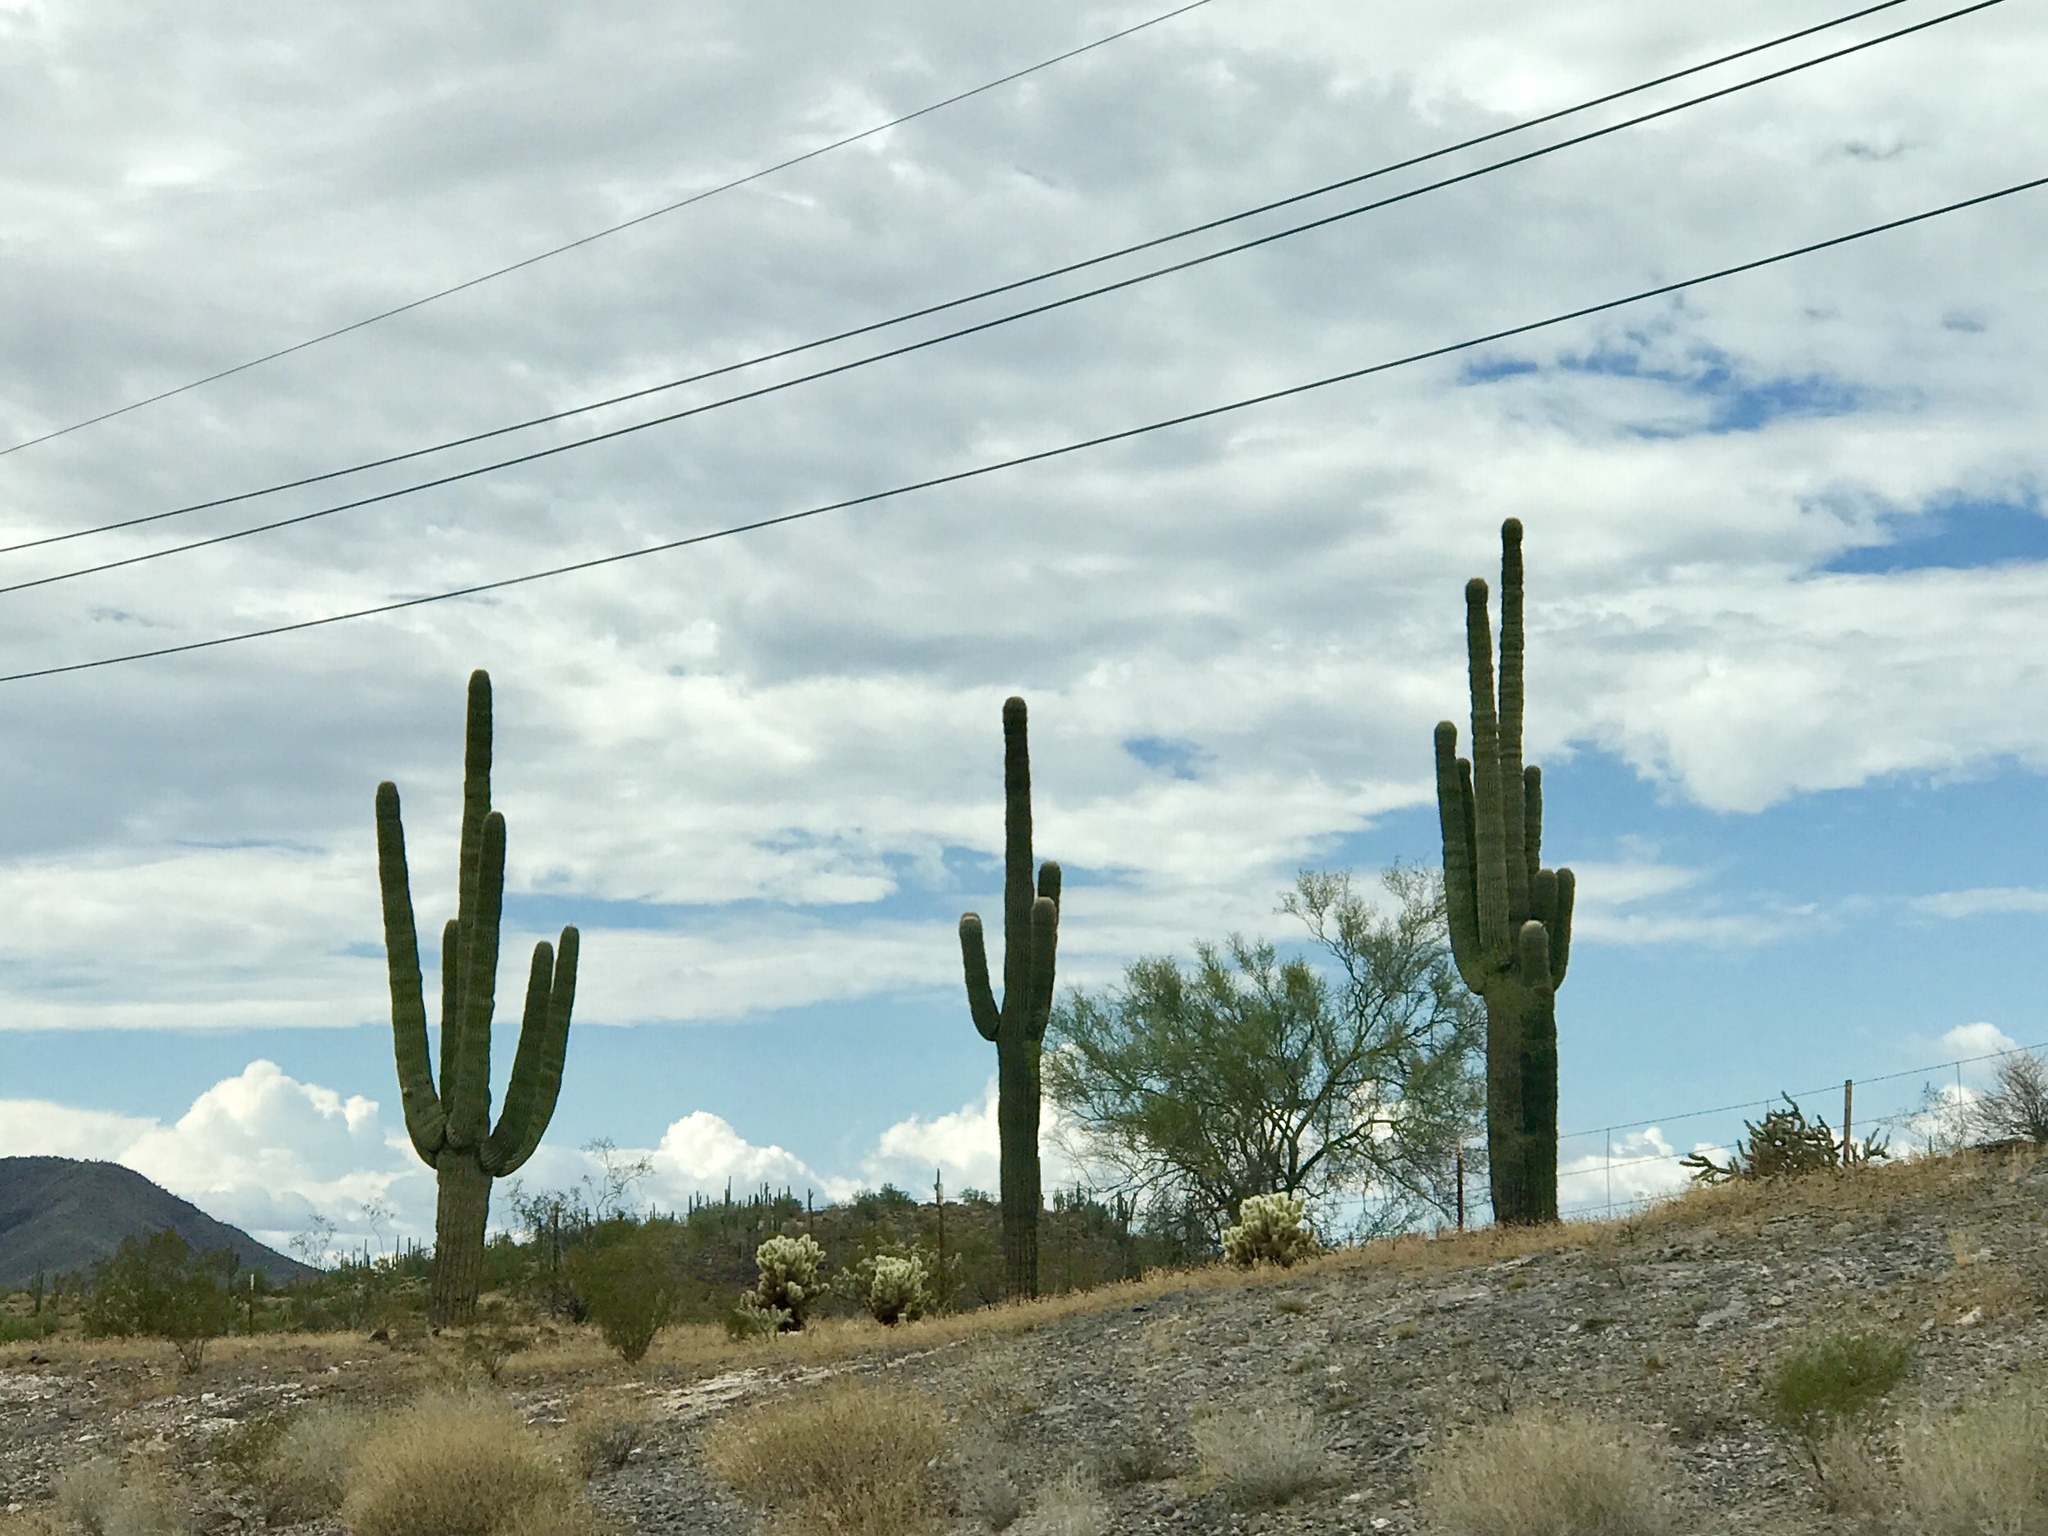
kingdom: Plantae
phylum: Tracheophyta
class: Magnoliopsida
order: Caryophyllales
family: Cactaceae
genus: Carnegiea
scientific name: Carnegiea gigantea
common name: Saguaro
